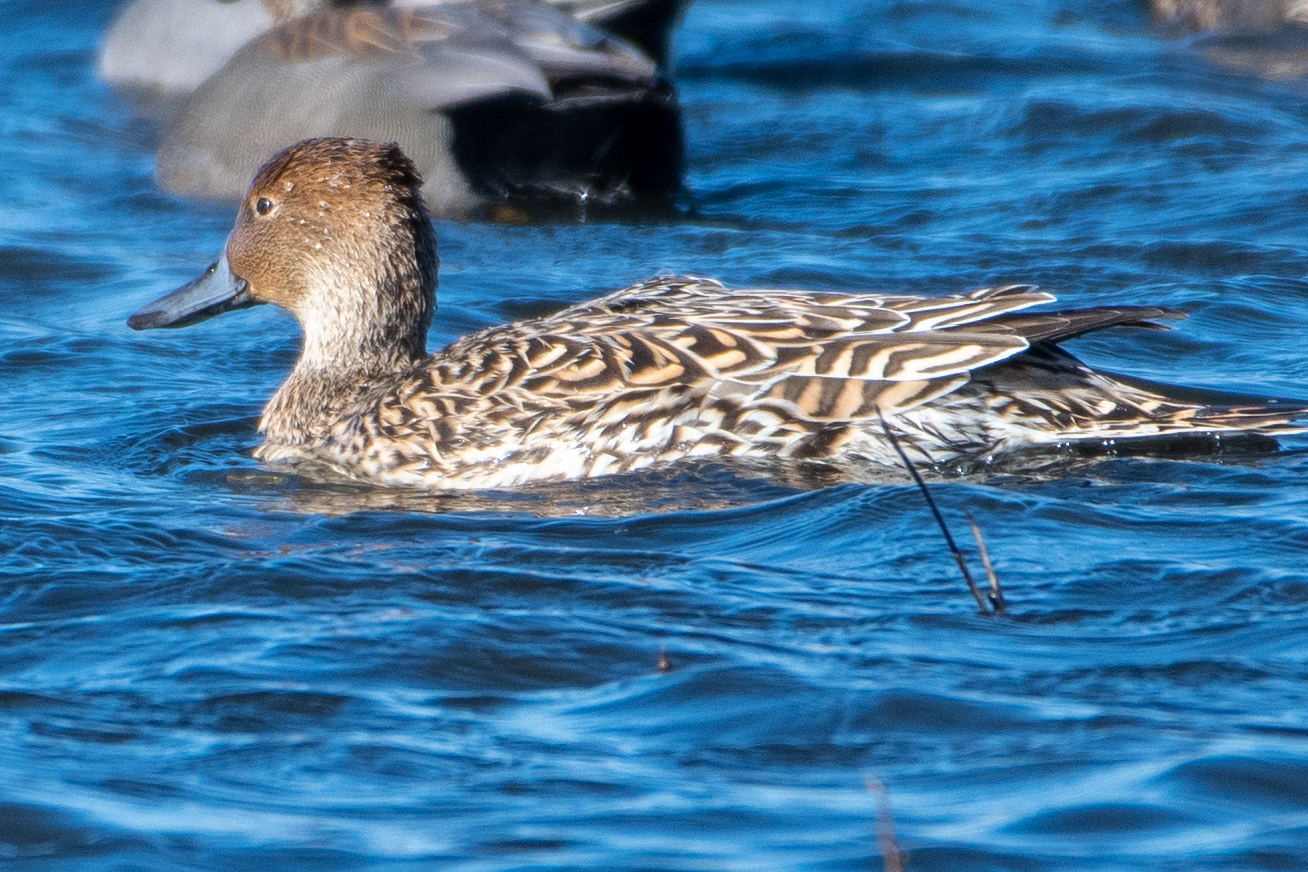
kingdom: Animalia
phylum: Chordata
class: Aves
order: Anseriformes
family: Anatidae
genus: Anas
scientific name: Anas acuta
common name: Northern pintail
